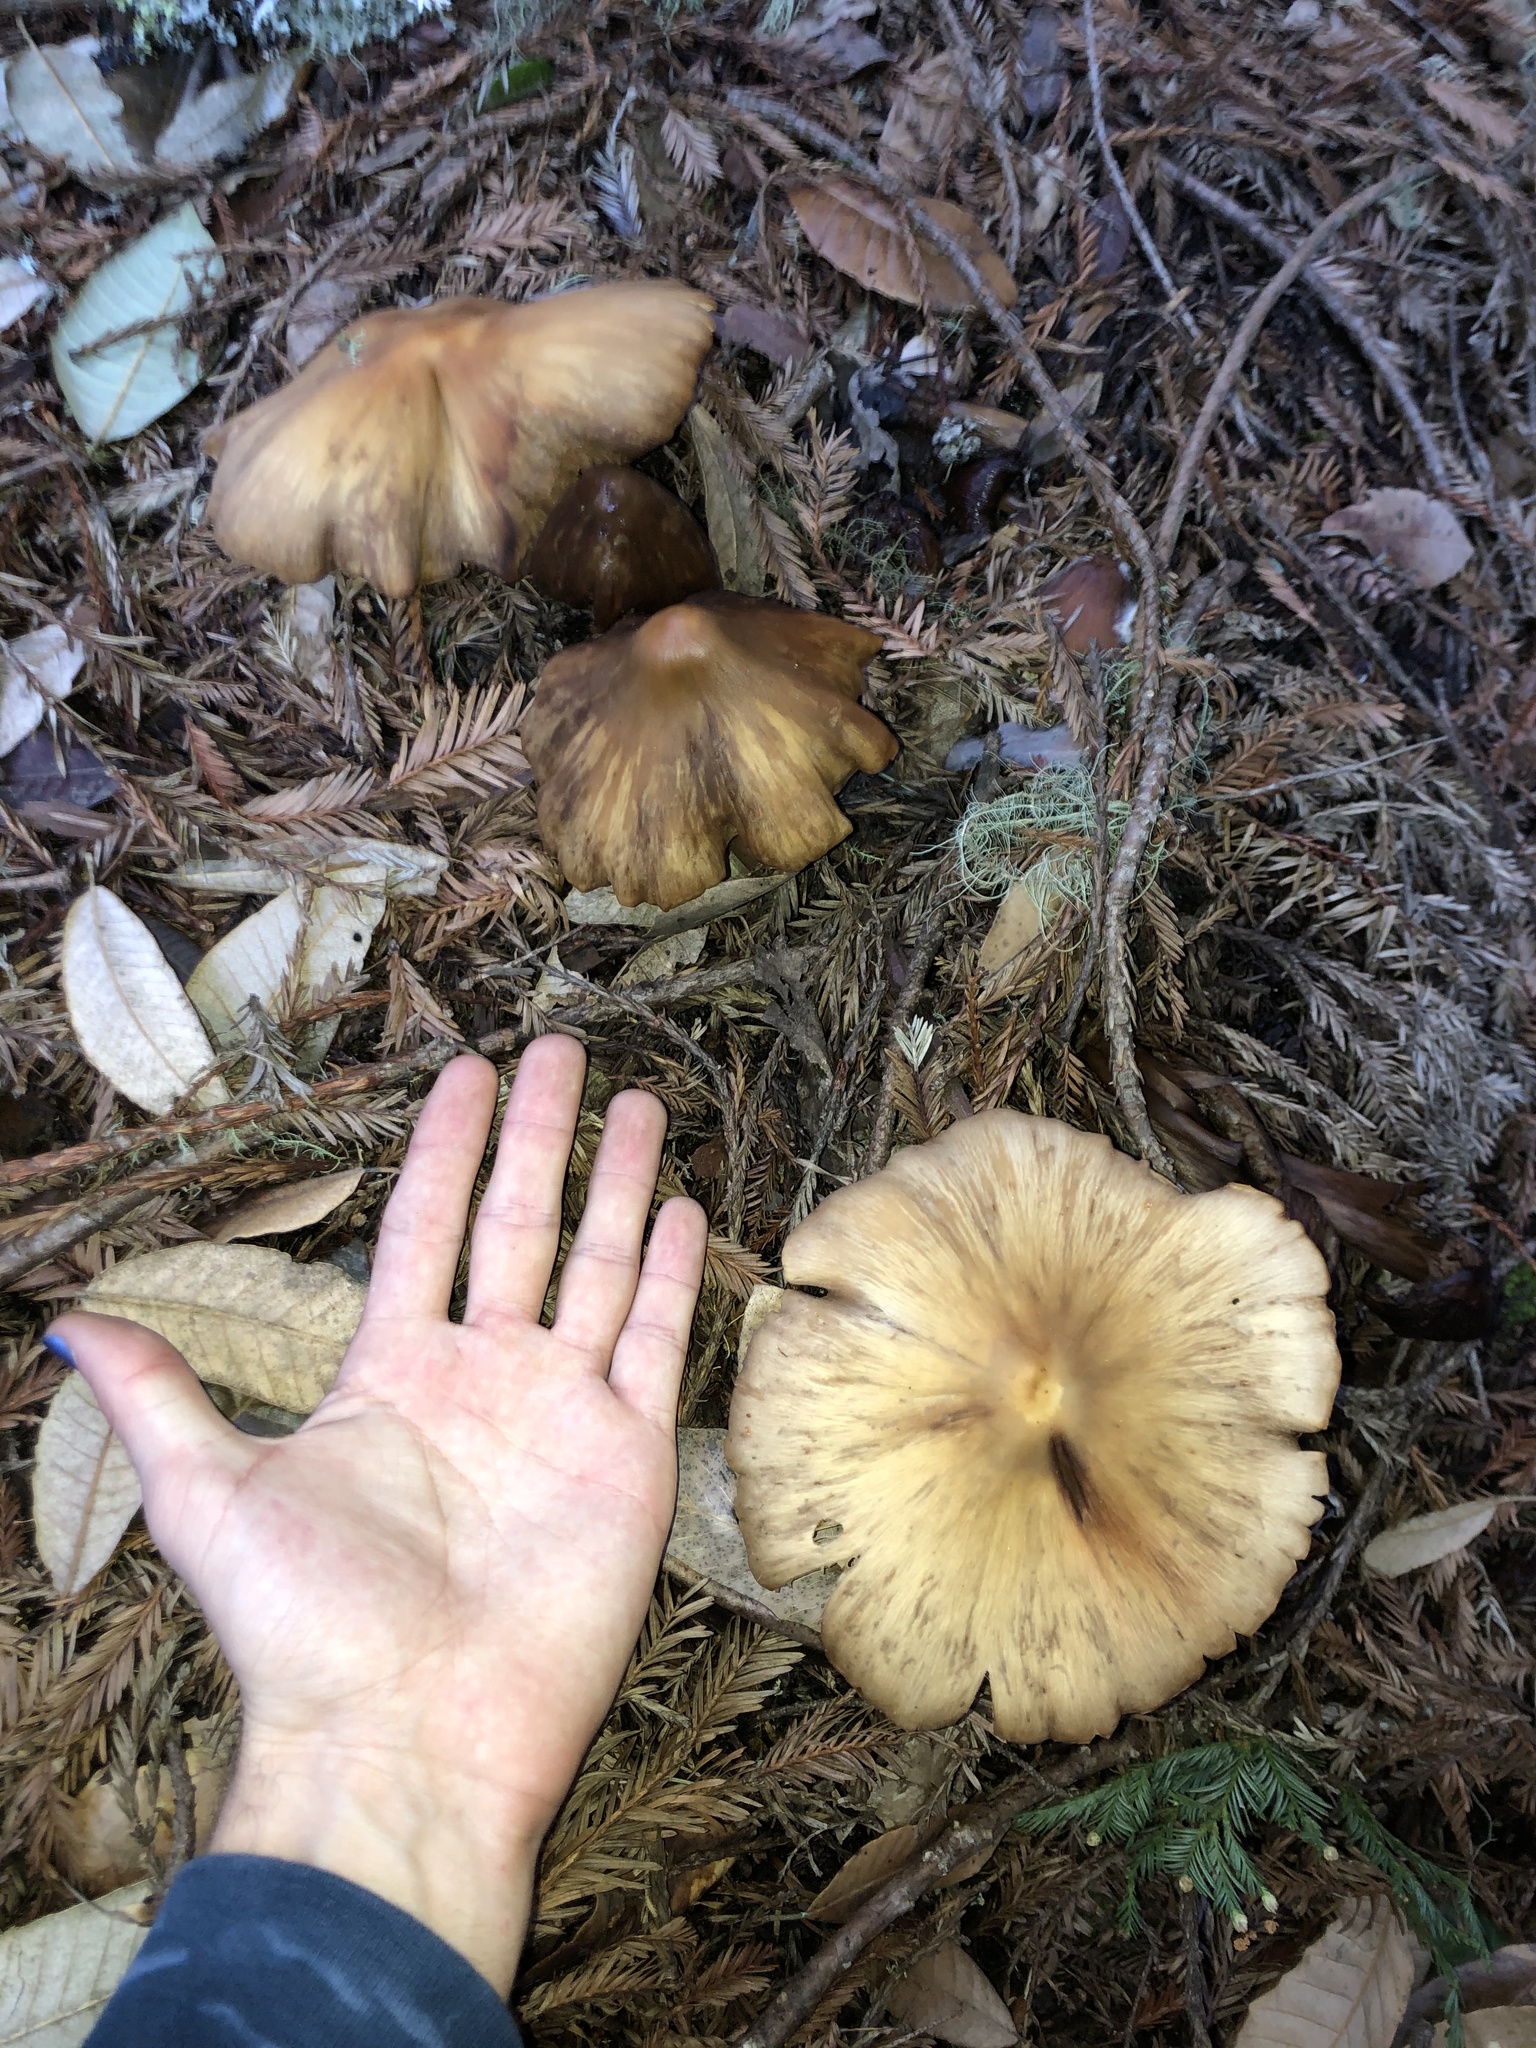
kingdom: Fungi
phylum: Basidiomycota
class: Agaricomycetes
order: Agaricales
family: Tricholomataceae
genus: Caulorhiza
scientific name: Caulorhiza umbonata
